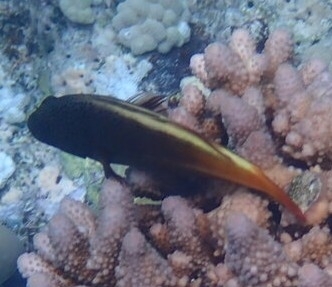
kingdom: Animalia
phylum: Chordata
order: Perciformes
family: Cirrhitidae
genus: Paracirrhites
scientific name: Paracirrhites forsteri
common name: Freckled hawkfish
